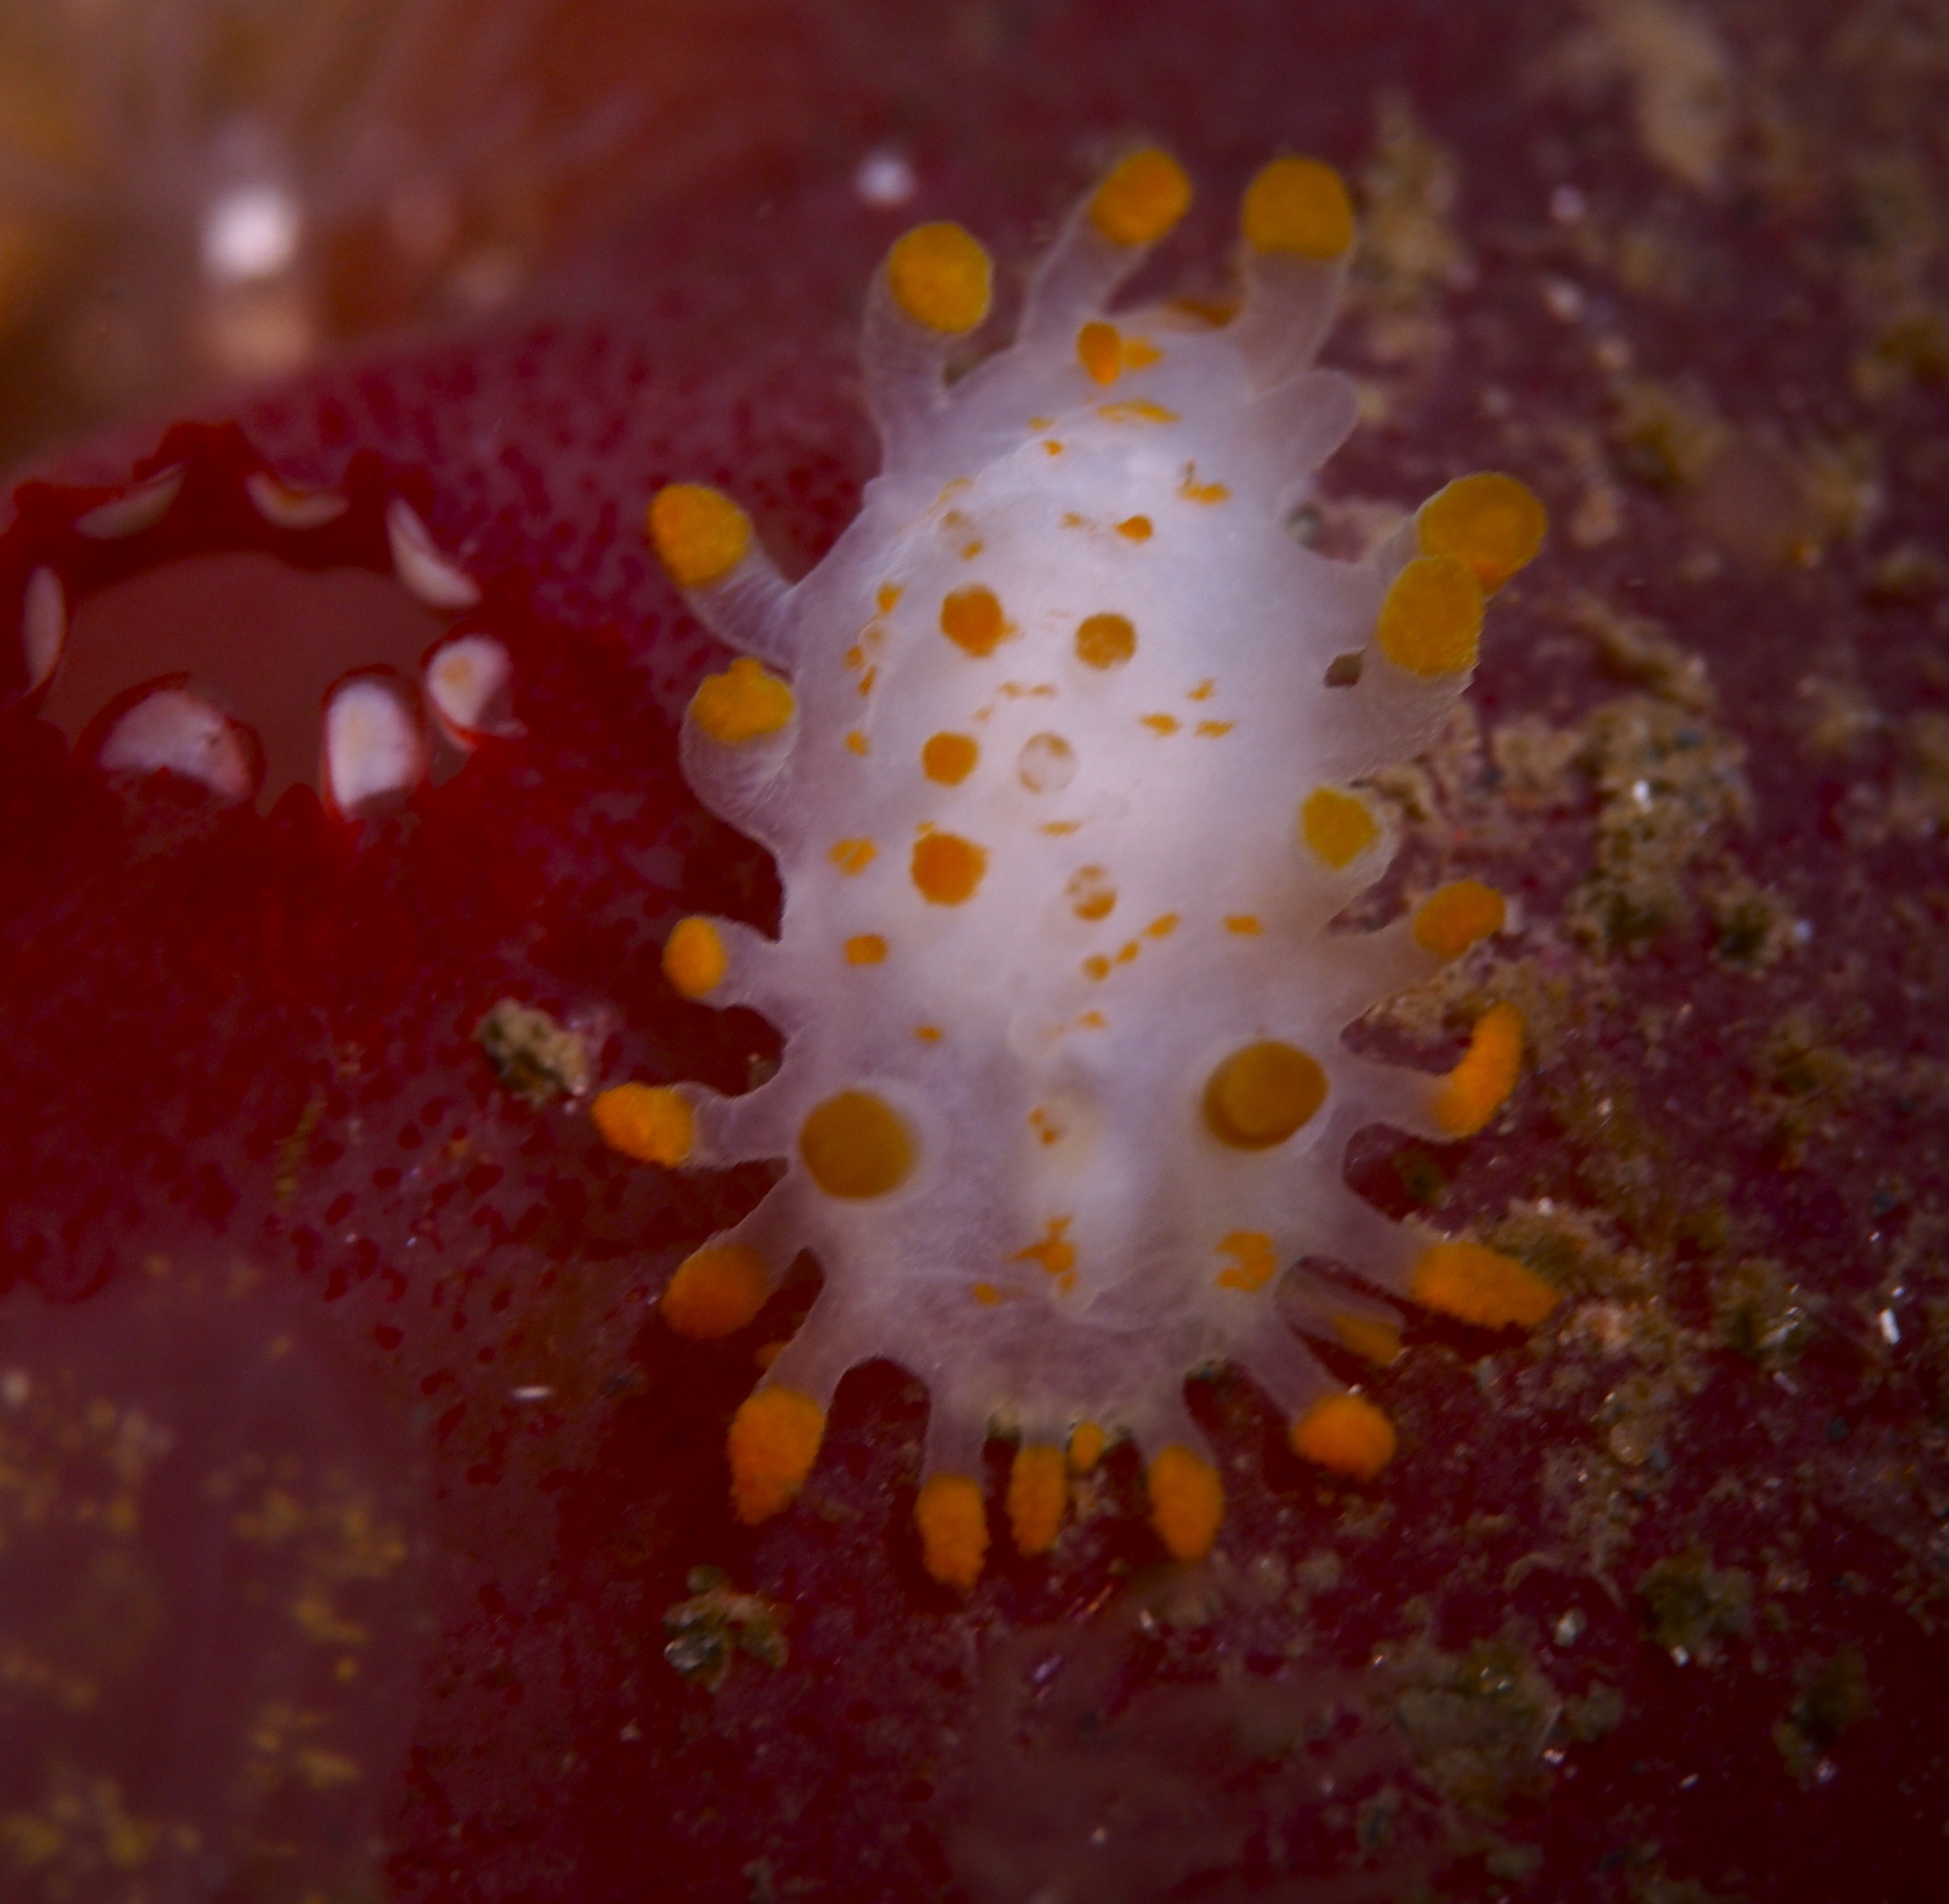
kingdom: Animalia
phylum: Mollusca
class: Gastropoda
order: Nudibranchia
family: Polyceridae
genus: Limacia
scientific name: Limacia clavigera
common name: Orange-clubbed sea slug
